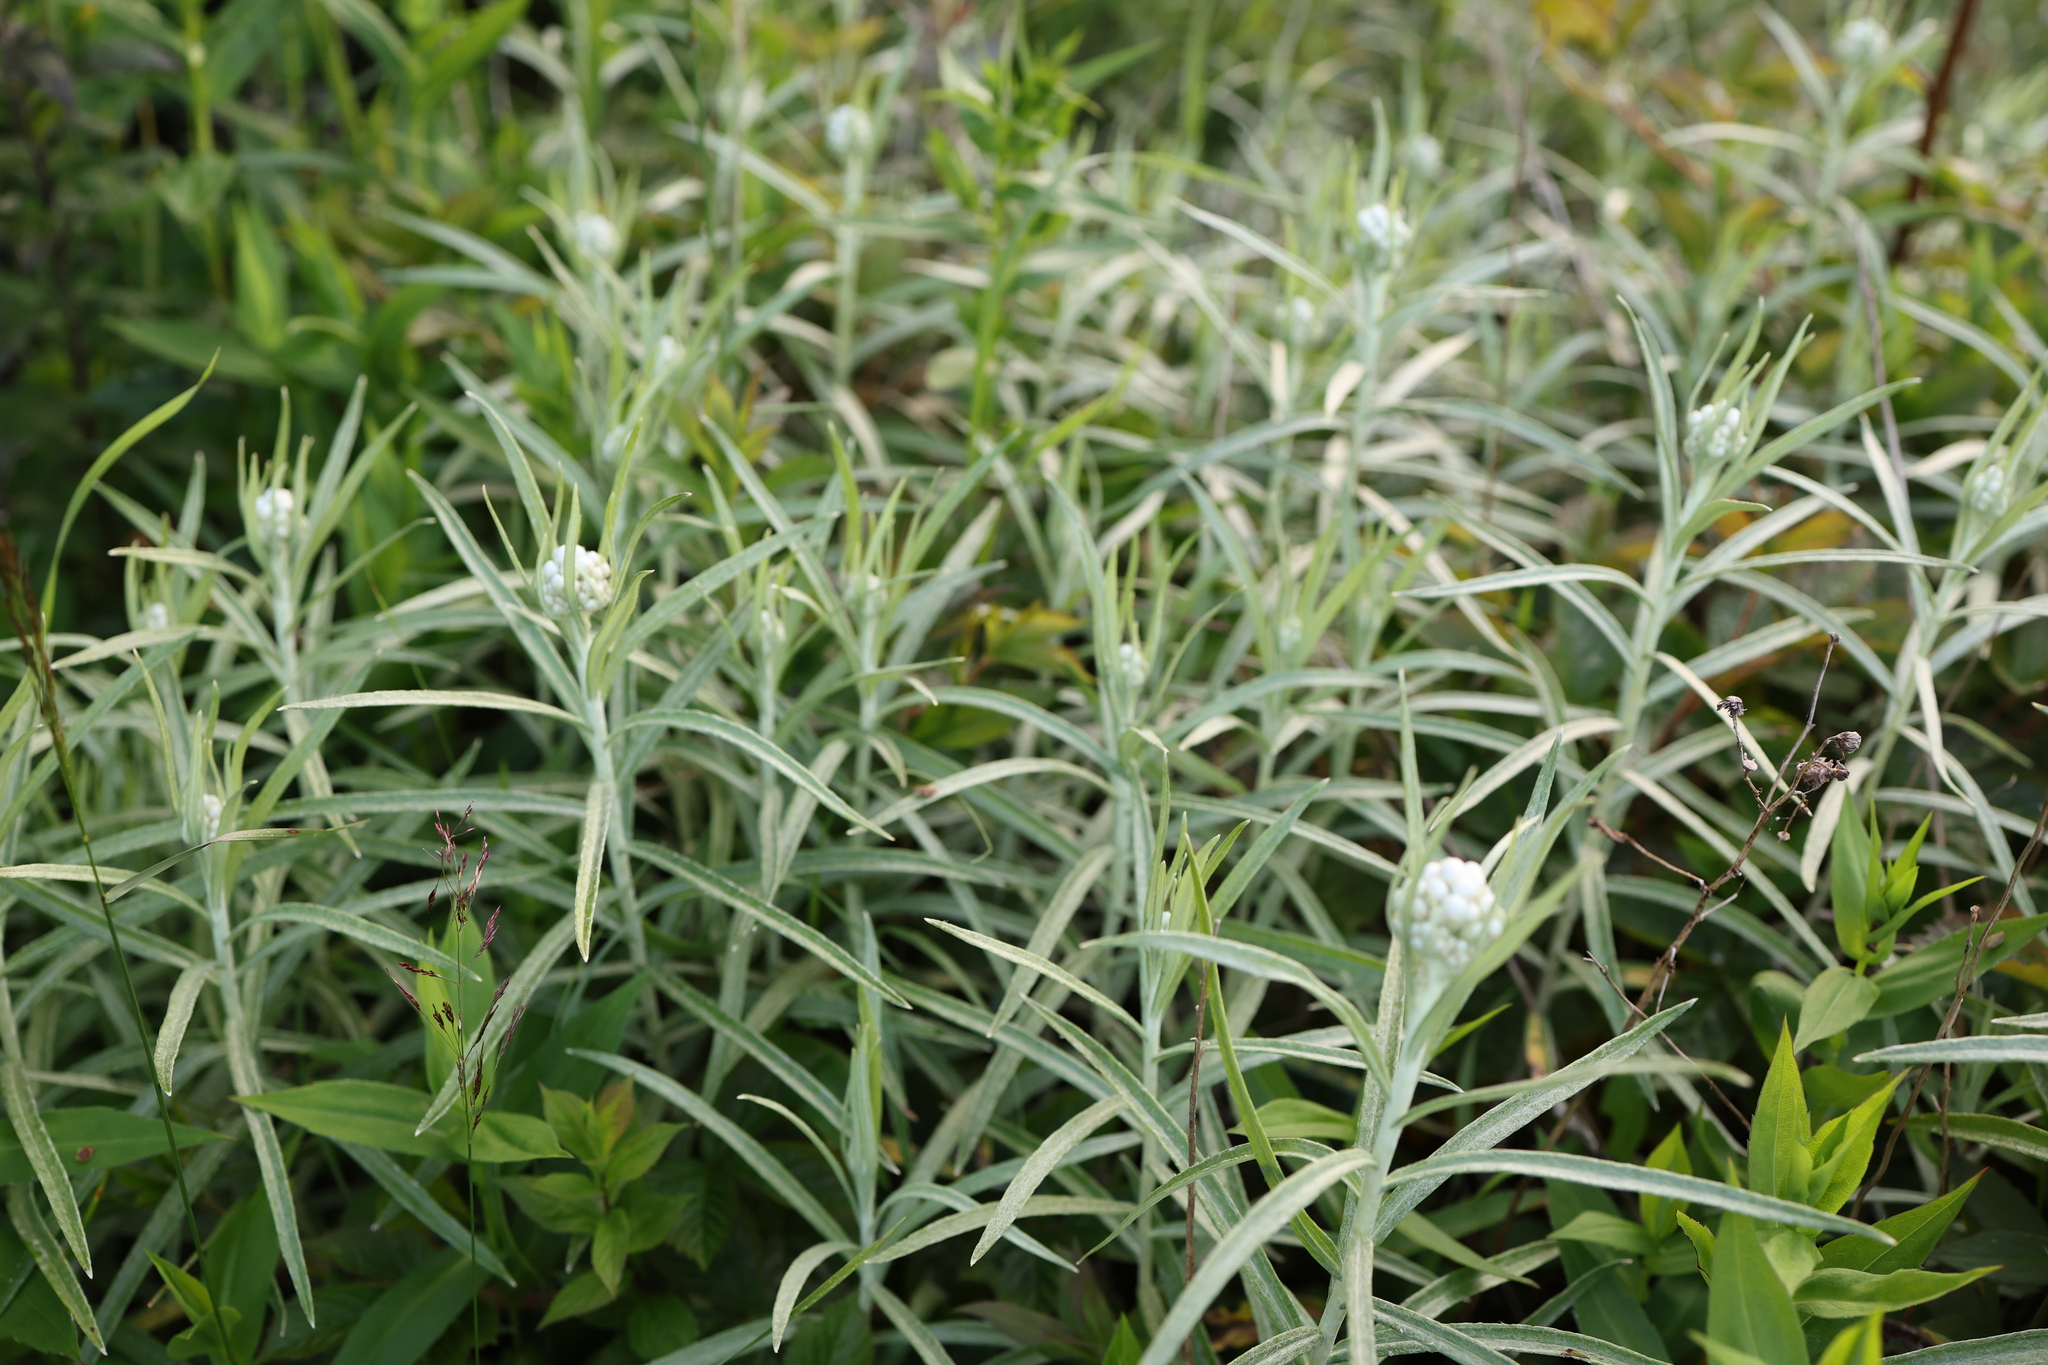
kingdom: Plantae
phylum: Tracheophyta
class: Magnoliopsida
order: Asterales
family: Asteraceae
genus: Anaphalis
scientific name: Anaphalis margaritacea
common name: Pearly everlasting
